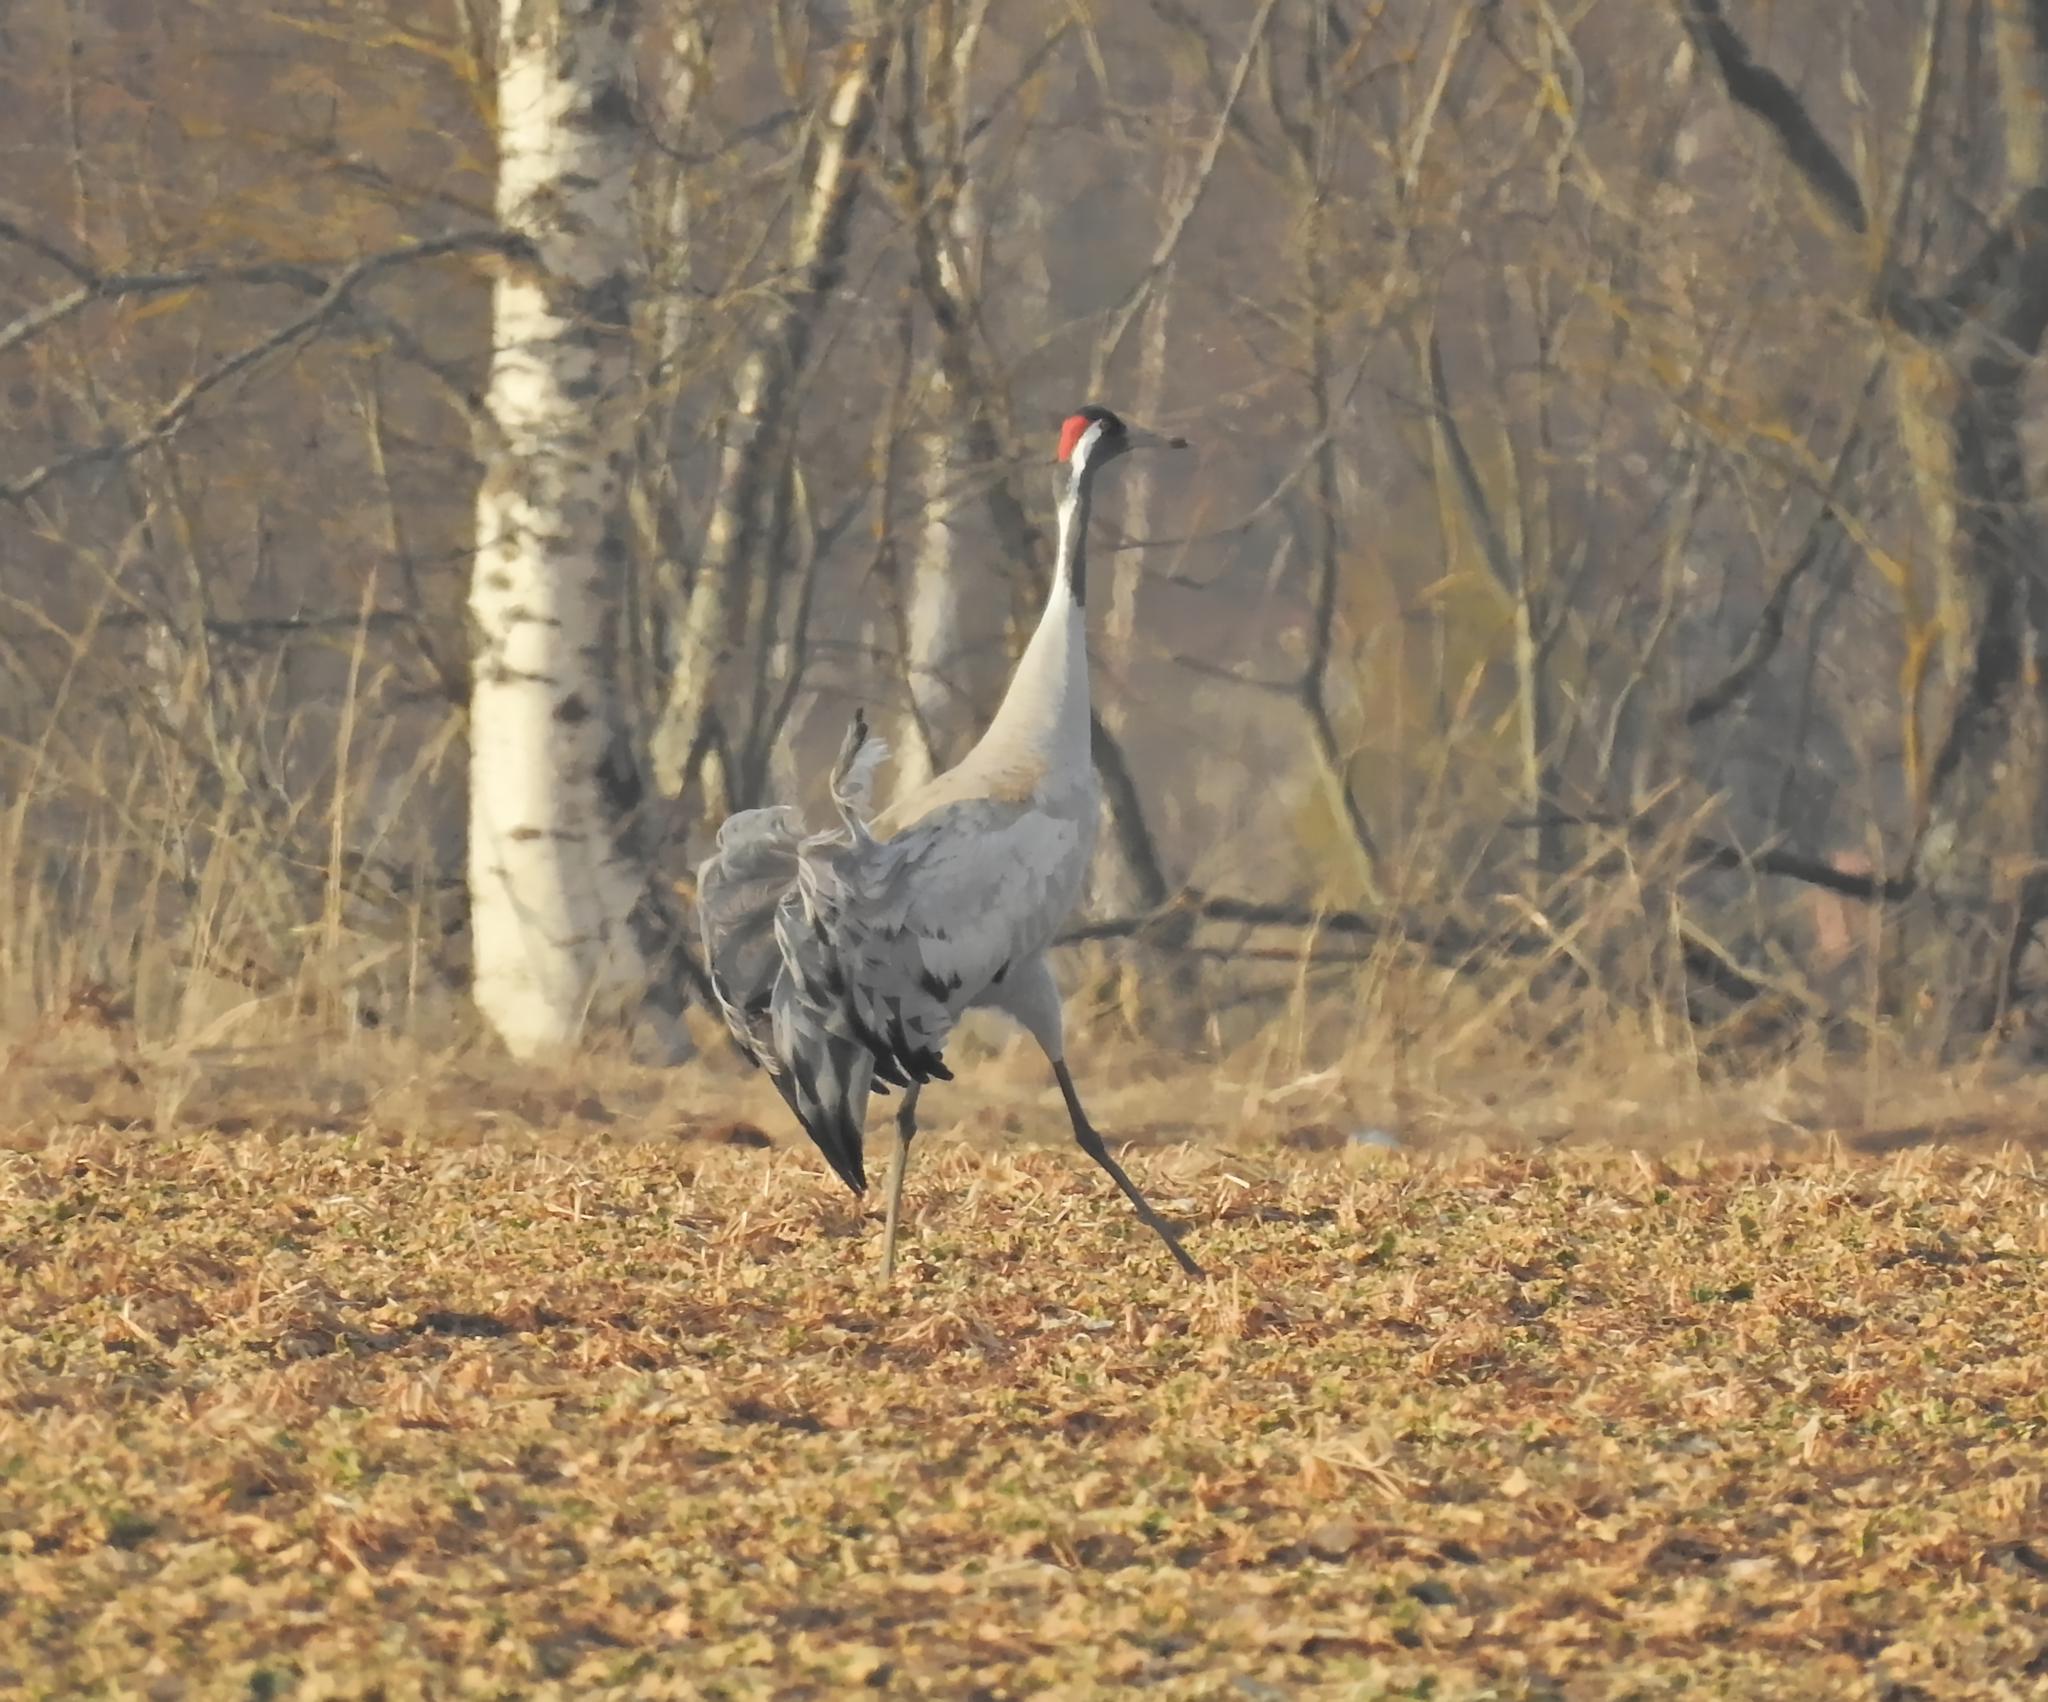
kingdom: Animalia
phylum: Chordata
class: Aves
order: Gruiformes
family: Gruidae
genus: Grus
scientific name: Grus grus
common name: Common crane
